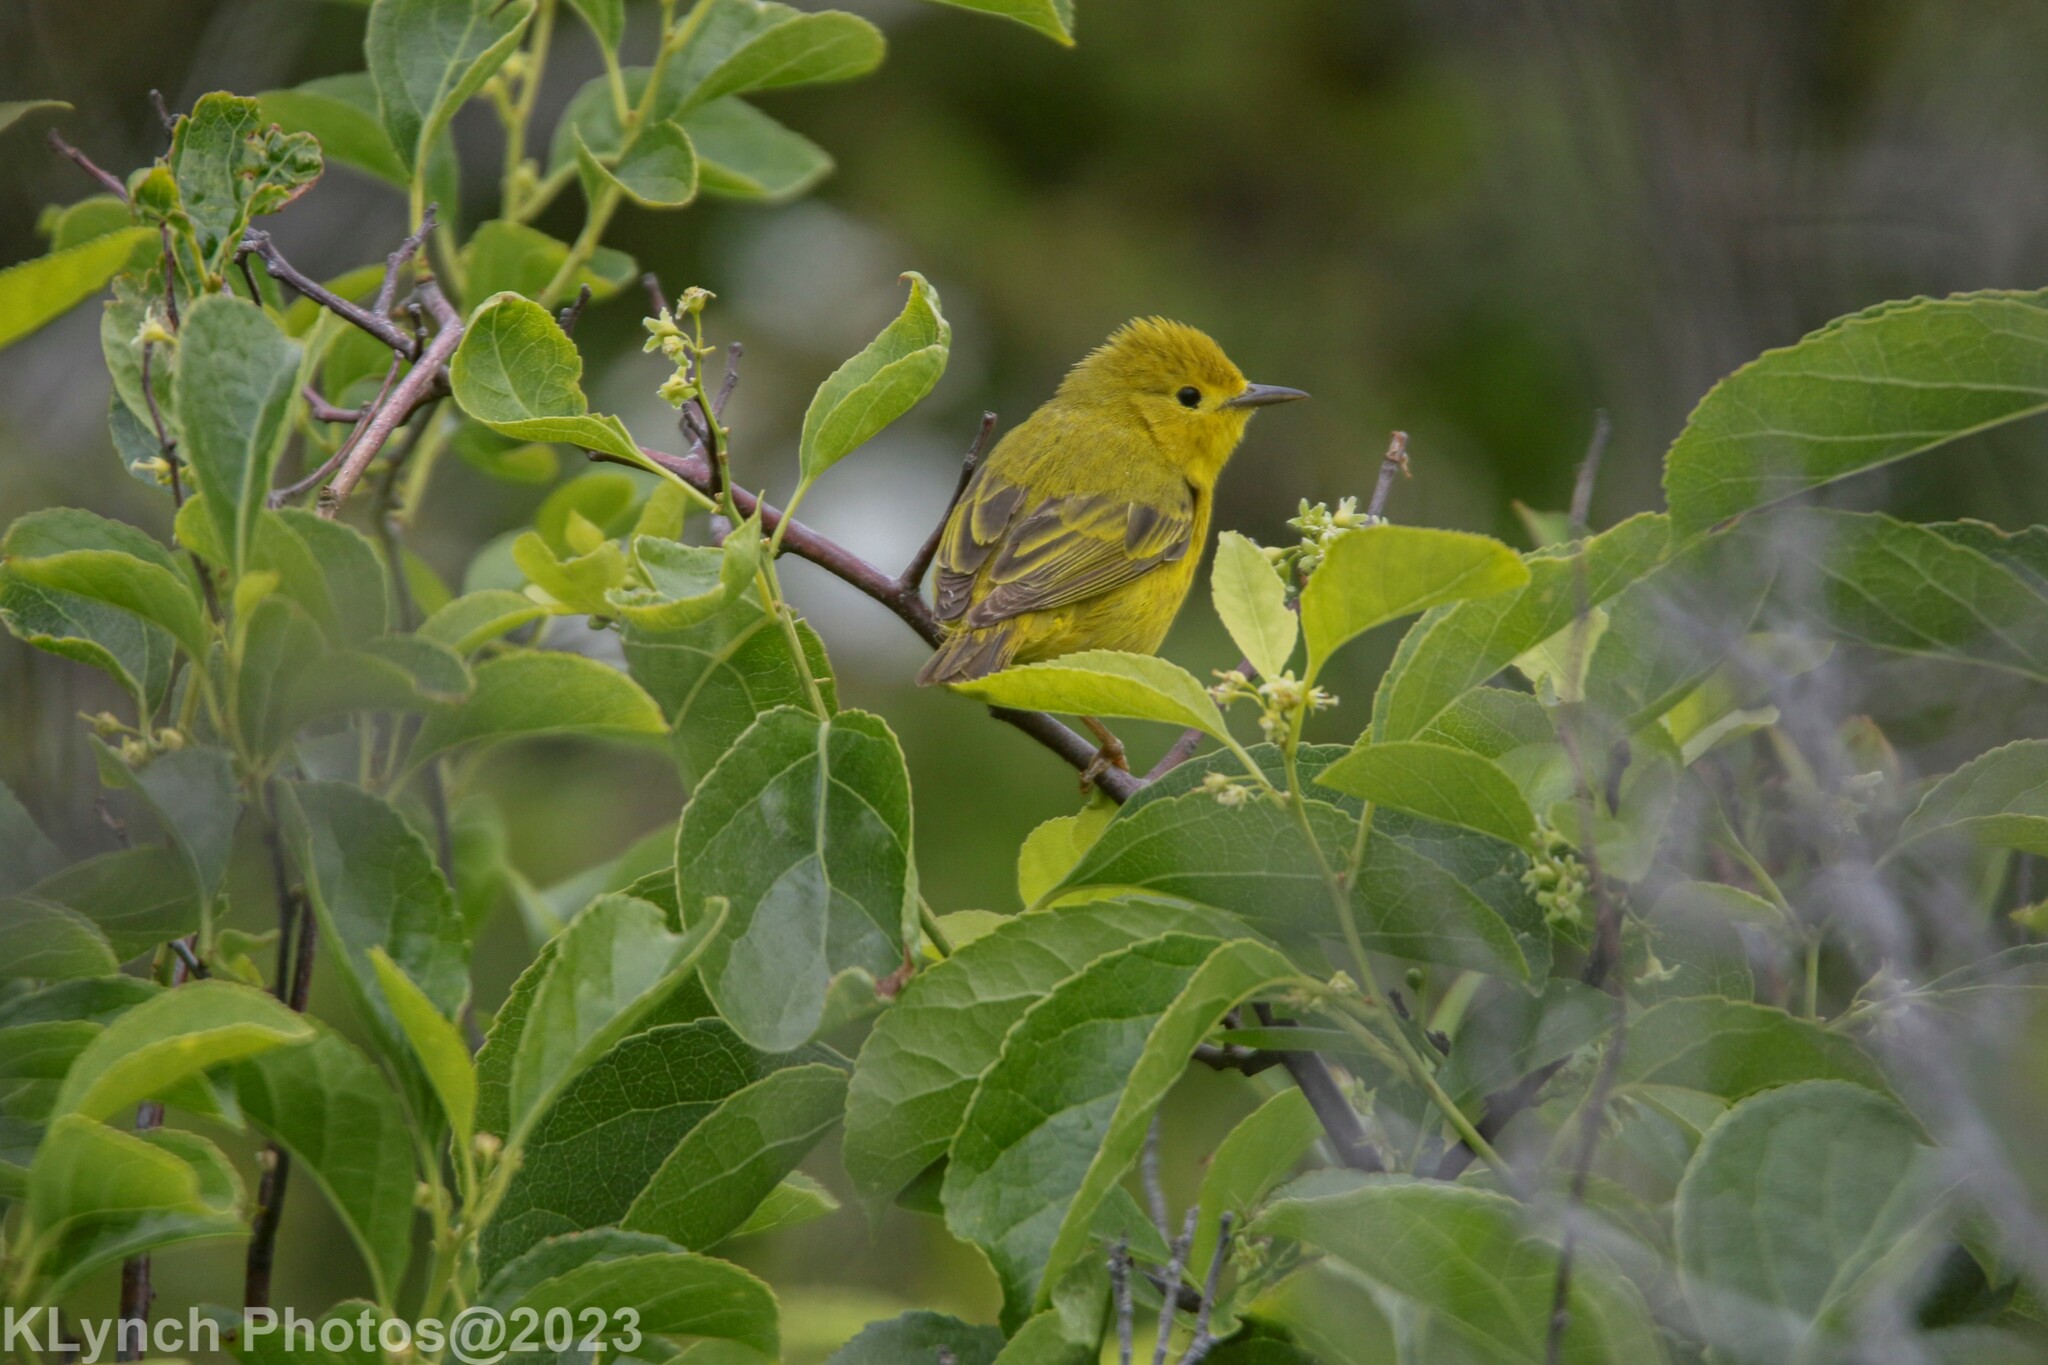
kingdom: Animalia
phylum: Chordata
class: Aves
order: Passeriformes
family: Parulidae
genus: Setophaga
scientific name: Setophaga petechia
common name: Yellow warbler
